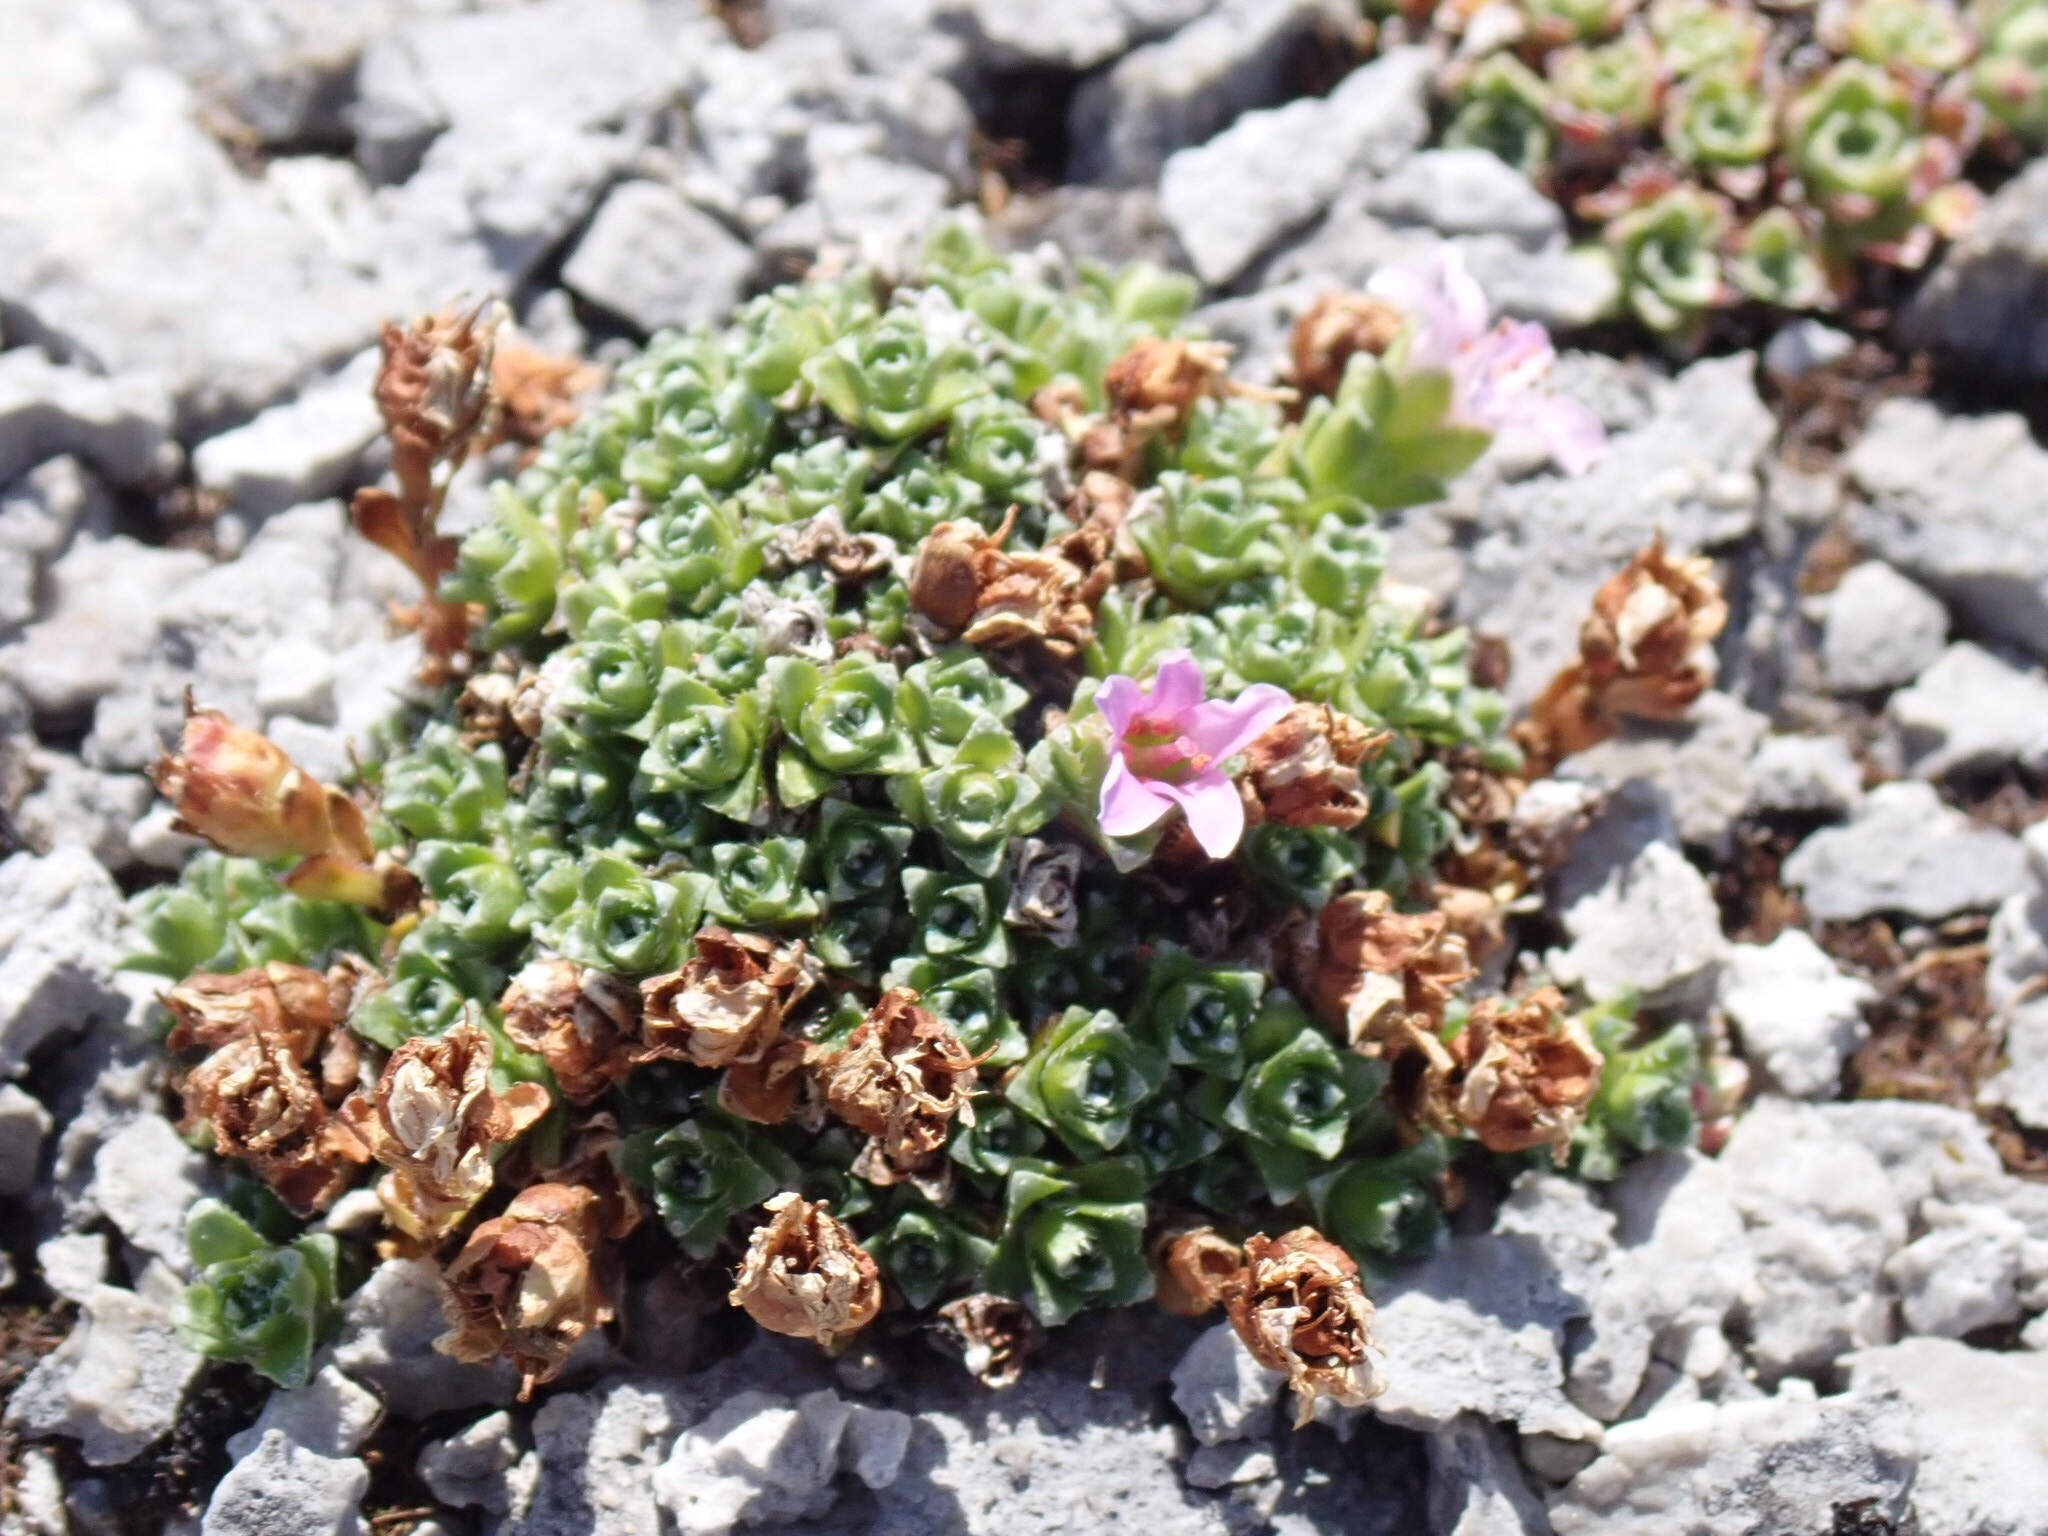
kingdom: Plantae
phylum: Tracheophyta
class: Magnoliopsida
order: Saxifragales
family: Saxifragaceae
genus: Saxifraga
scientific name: Saxifraga oppositifolia
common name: Purple saxifrage
